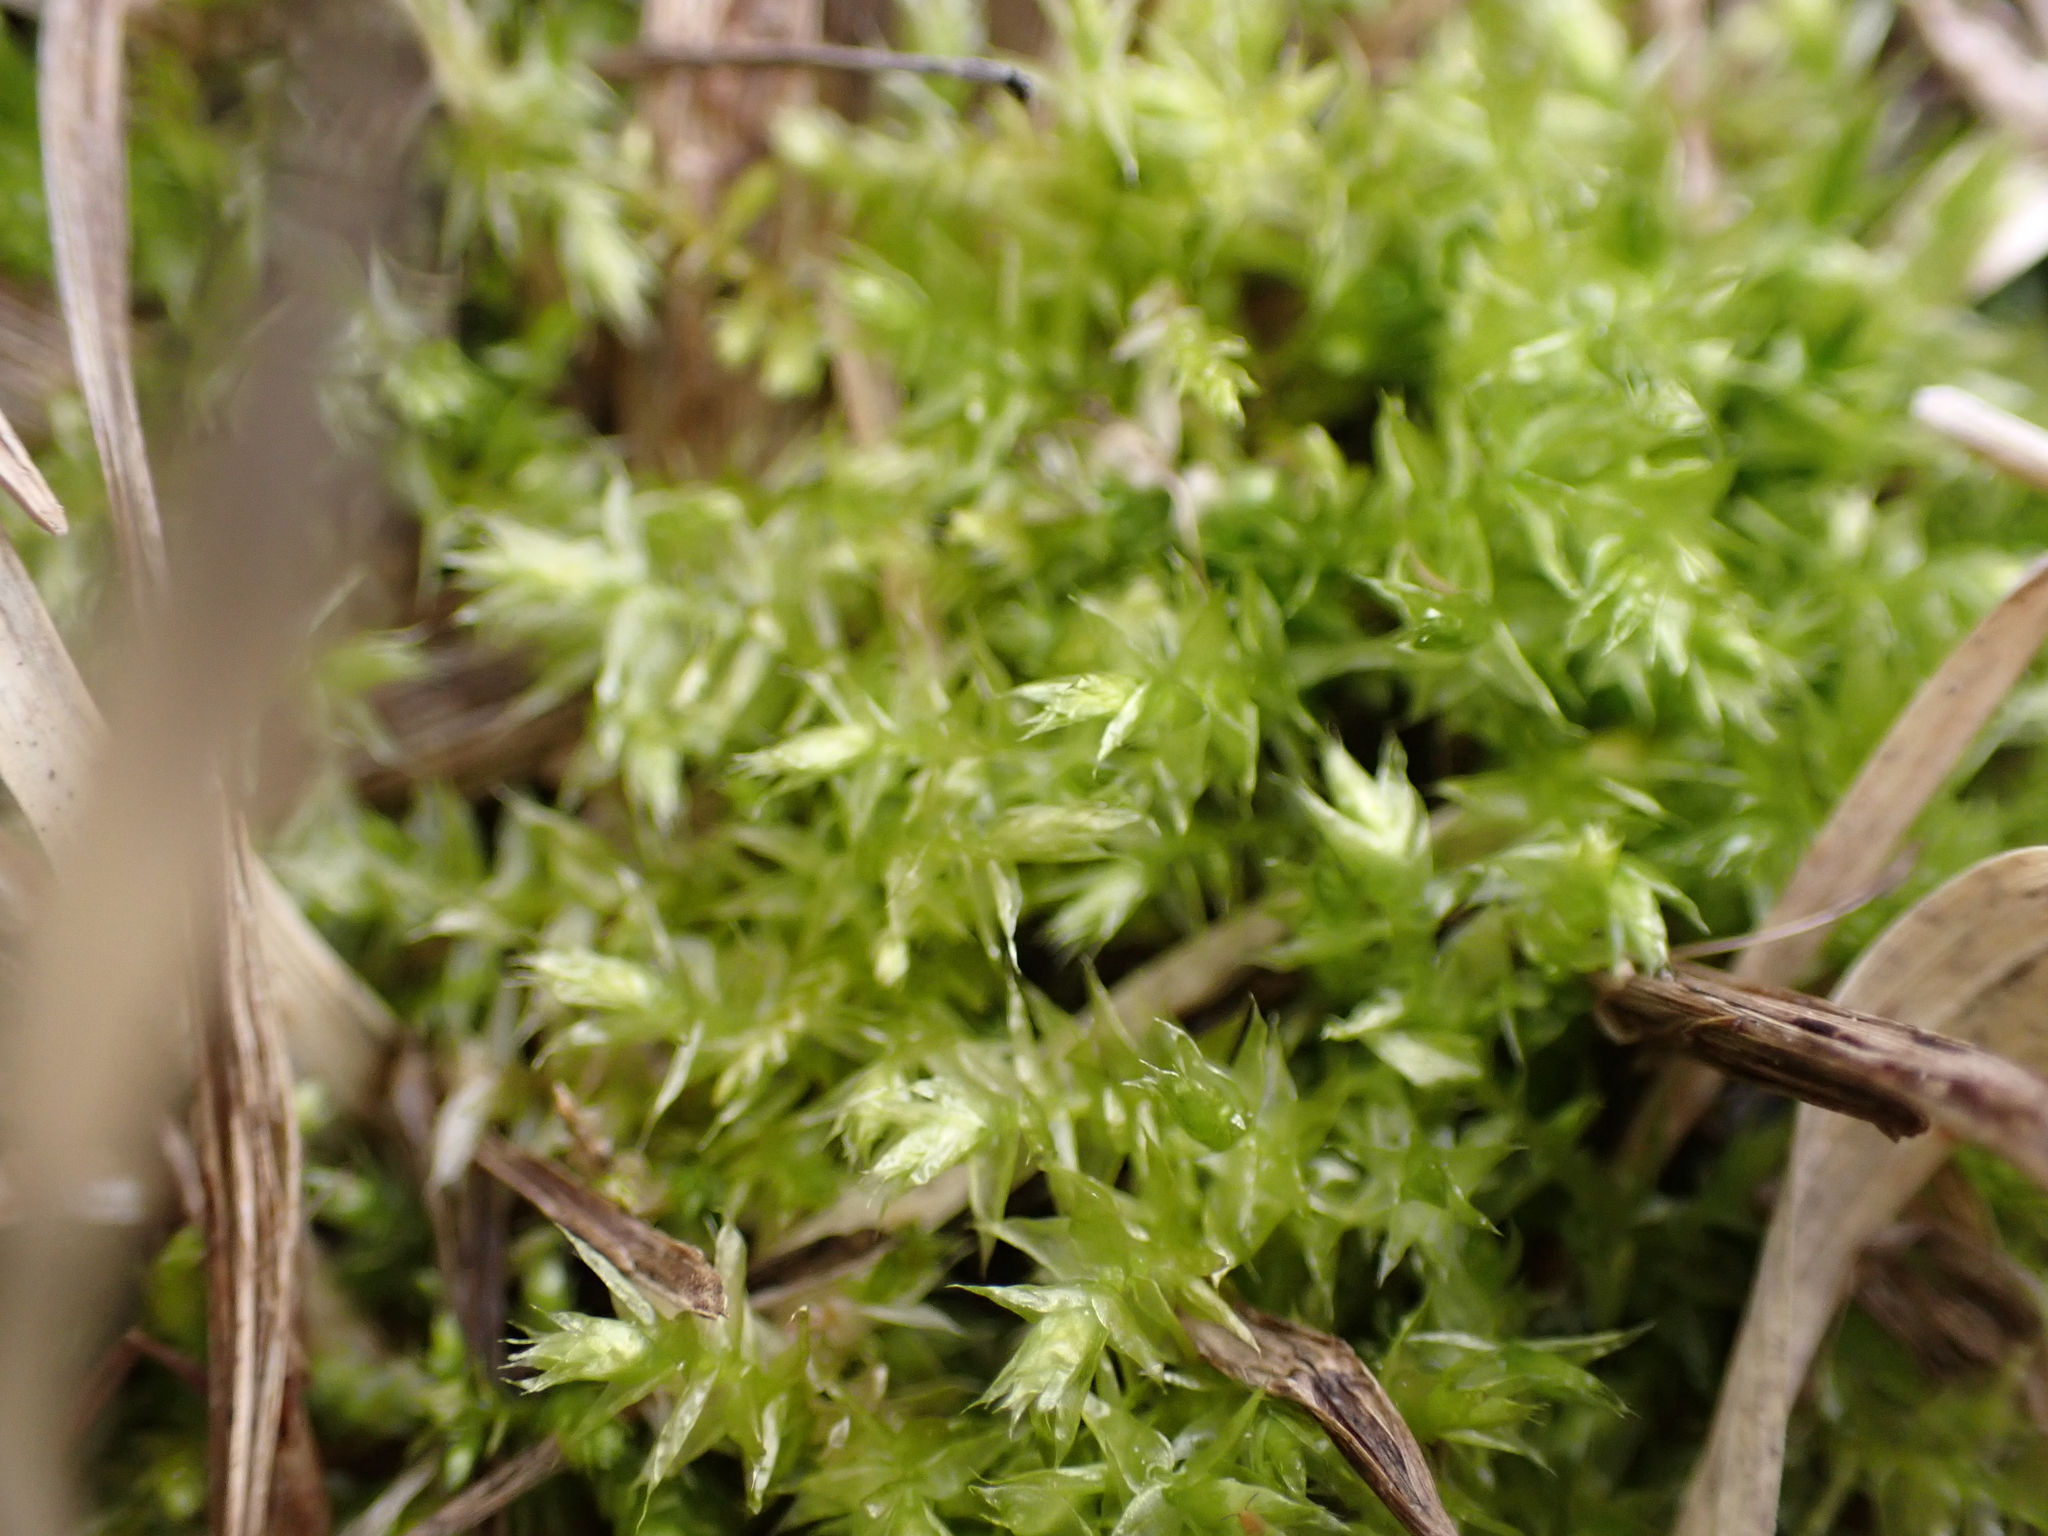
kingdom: Plantae
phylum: Bryophyta
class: Bryopsida
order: Hypnales
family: Plagiotheciaceae
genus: Pseudotaxiphyllum
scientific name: Pseudotaxiphyllum elegans
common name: Elegant silk moss
